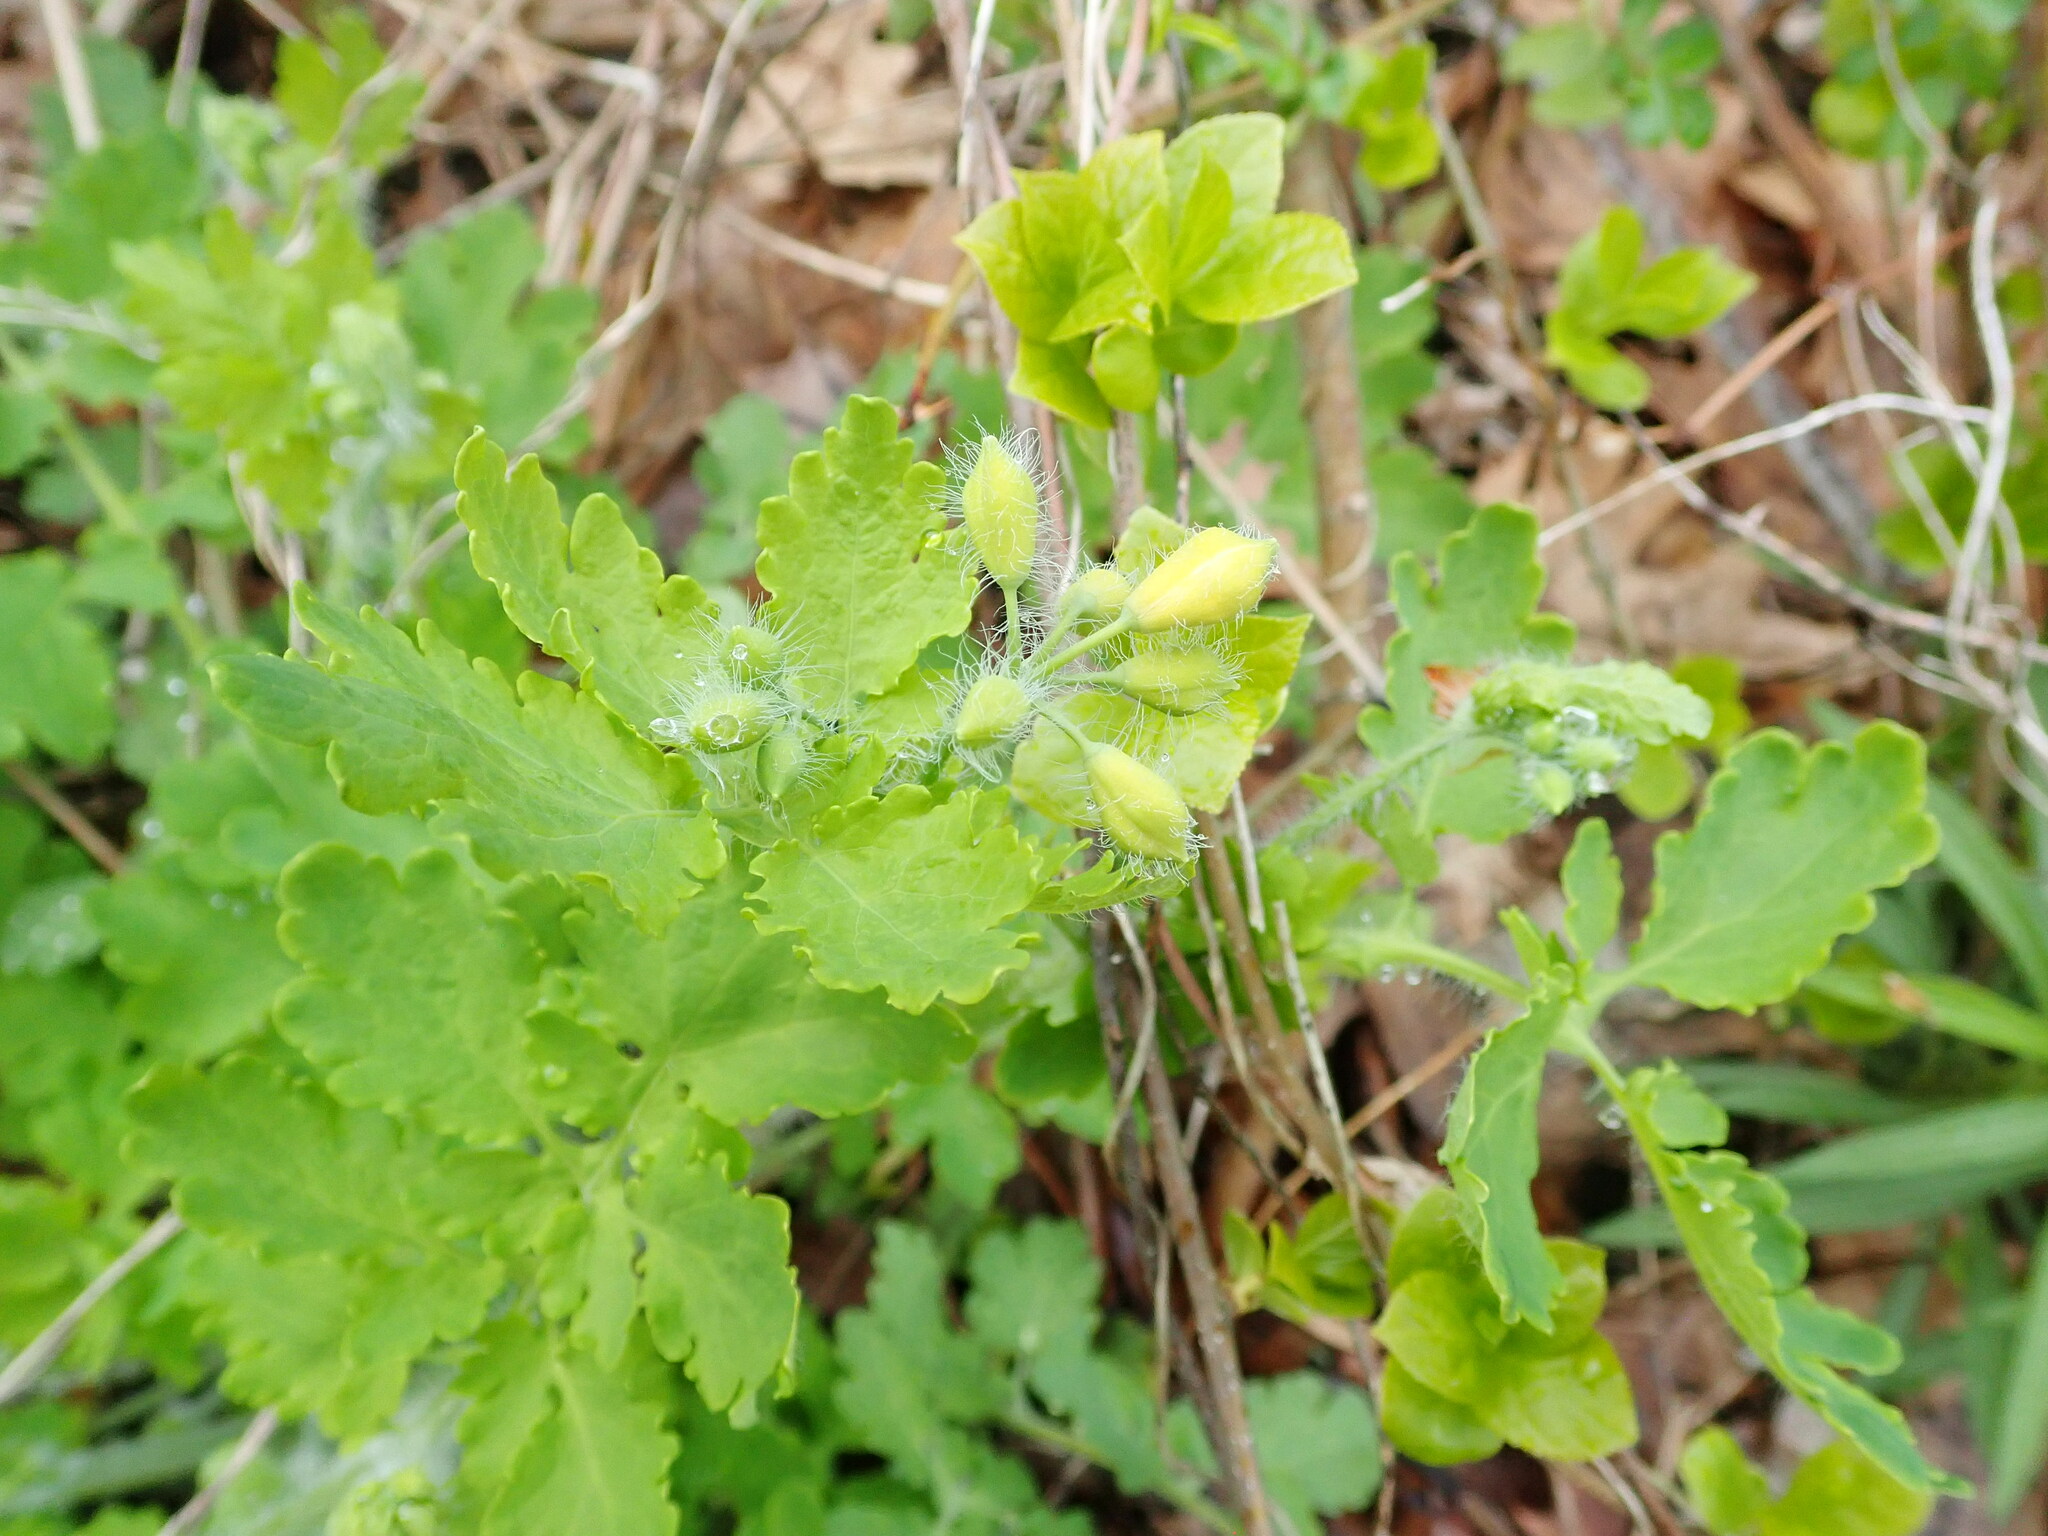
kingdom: Plantae
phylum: Tracheophyta
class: Magnoliopsida
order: Ranunculales
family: Papaveraceae
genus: Chelidonium
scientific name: Chelidonium majus
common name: Greater celandine
